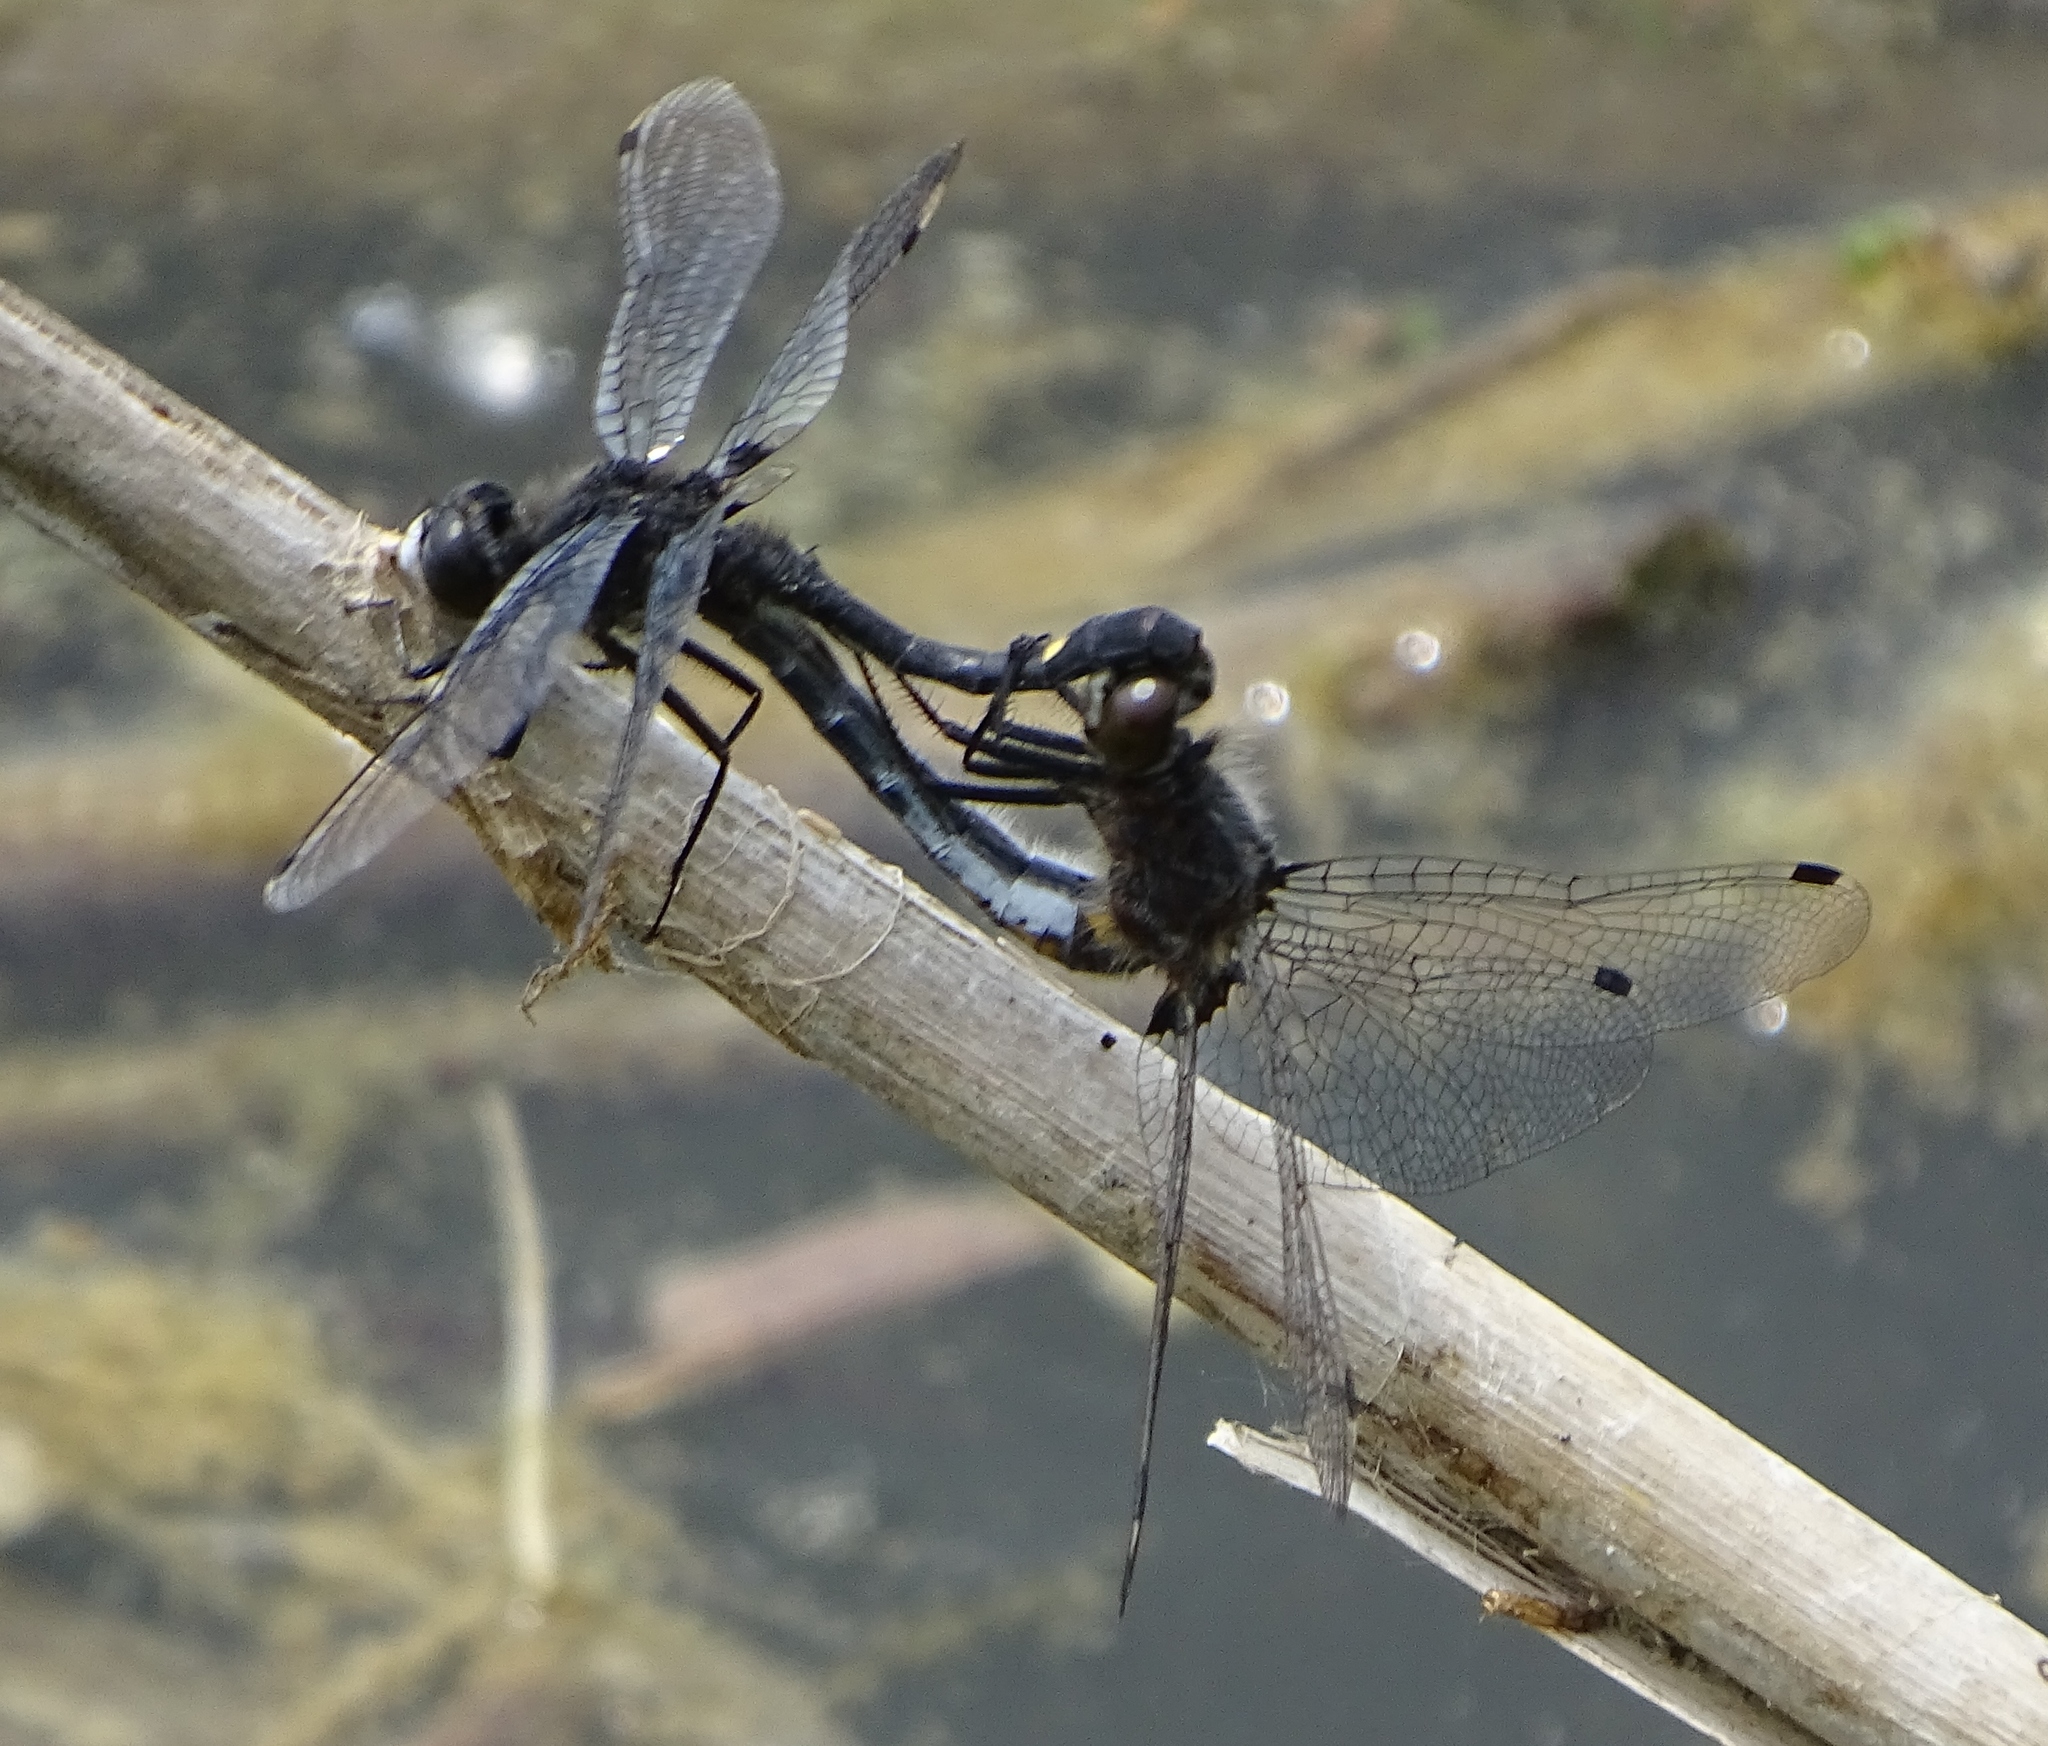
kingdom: Animalia
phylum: Arthropoda
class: Insecta
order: Odonata
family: Libellulidae
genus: Leucorrhinia
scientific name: Leucorrhinia intacta
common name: Dot-tailed whiteface
